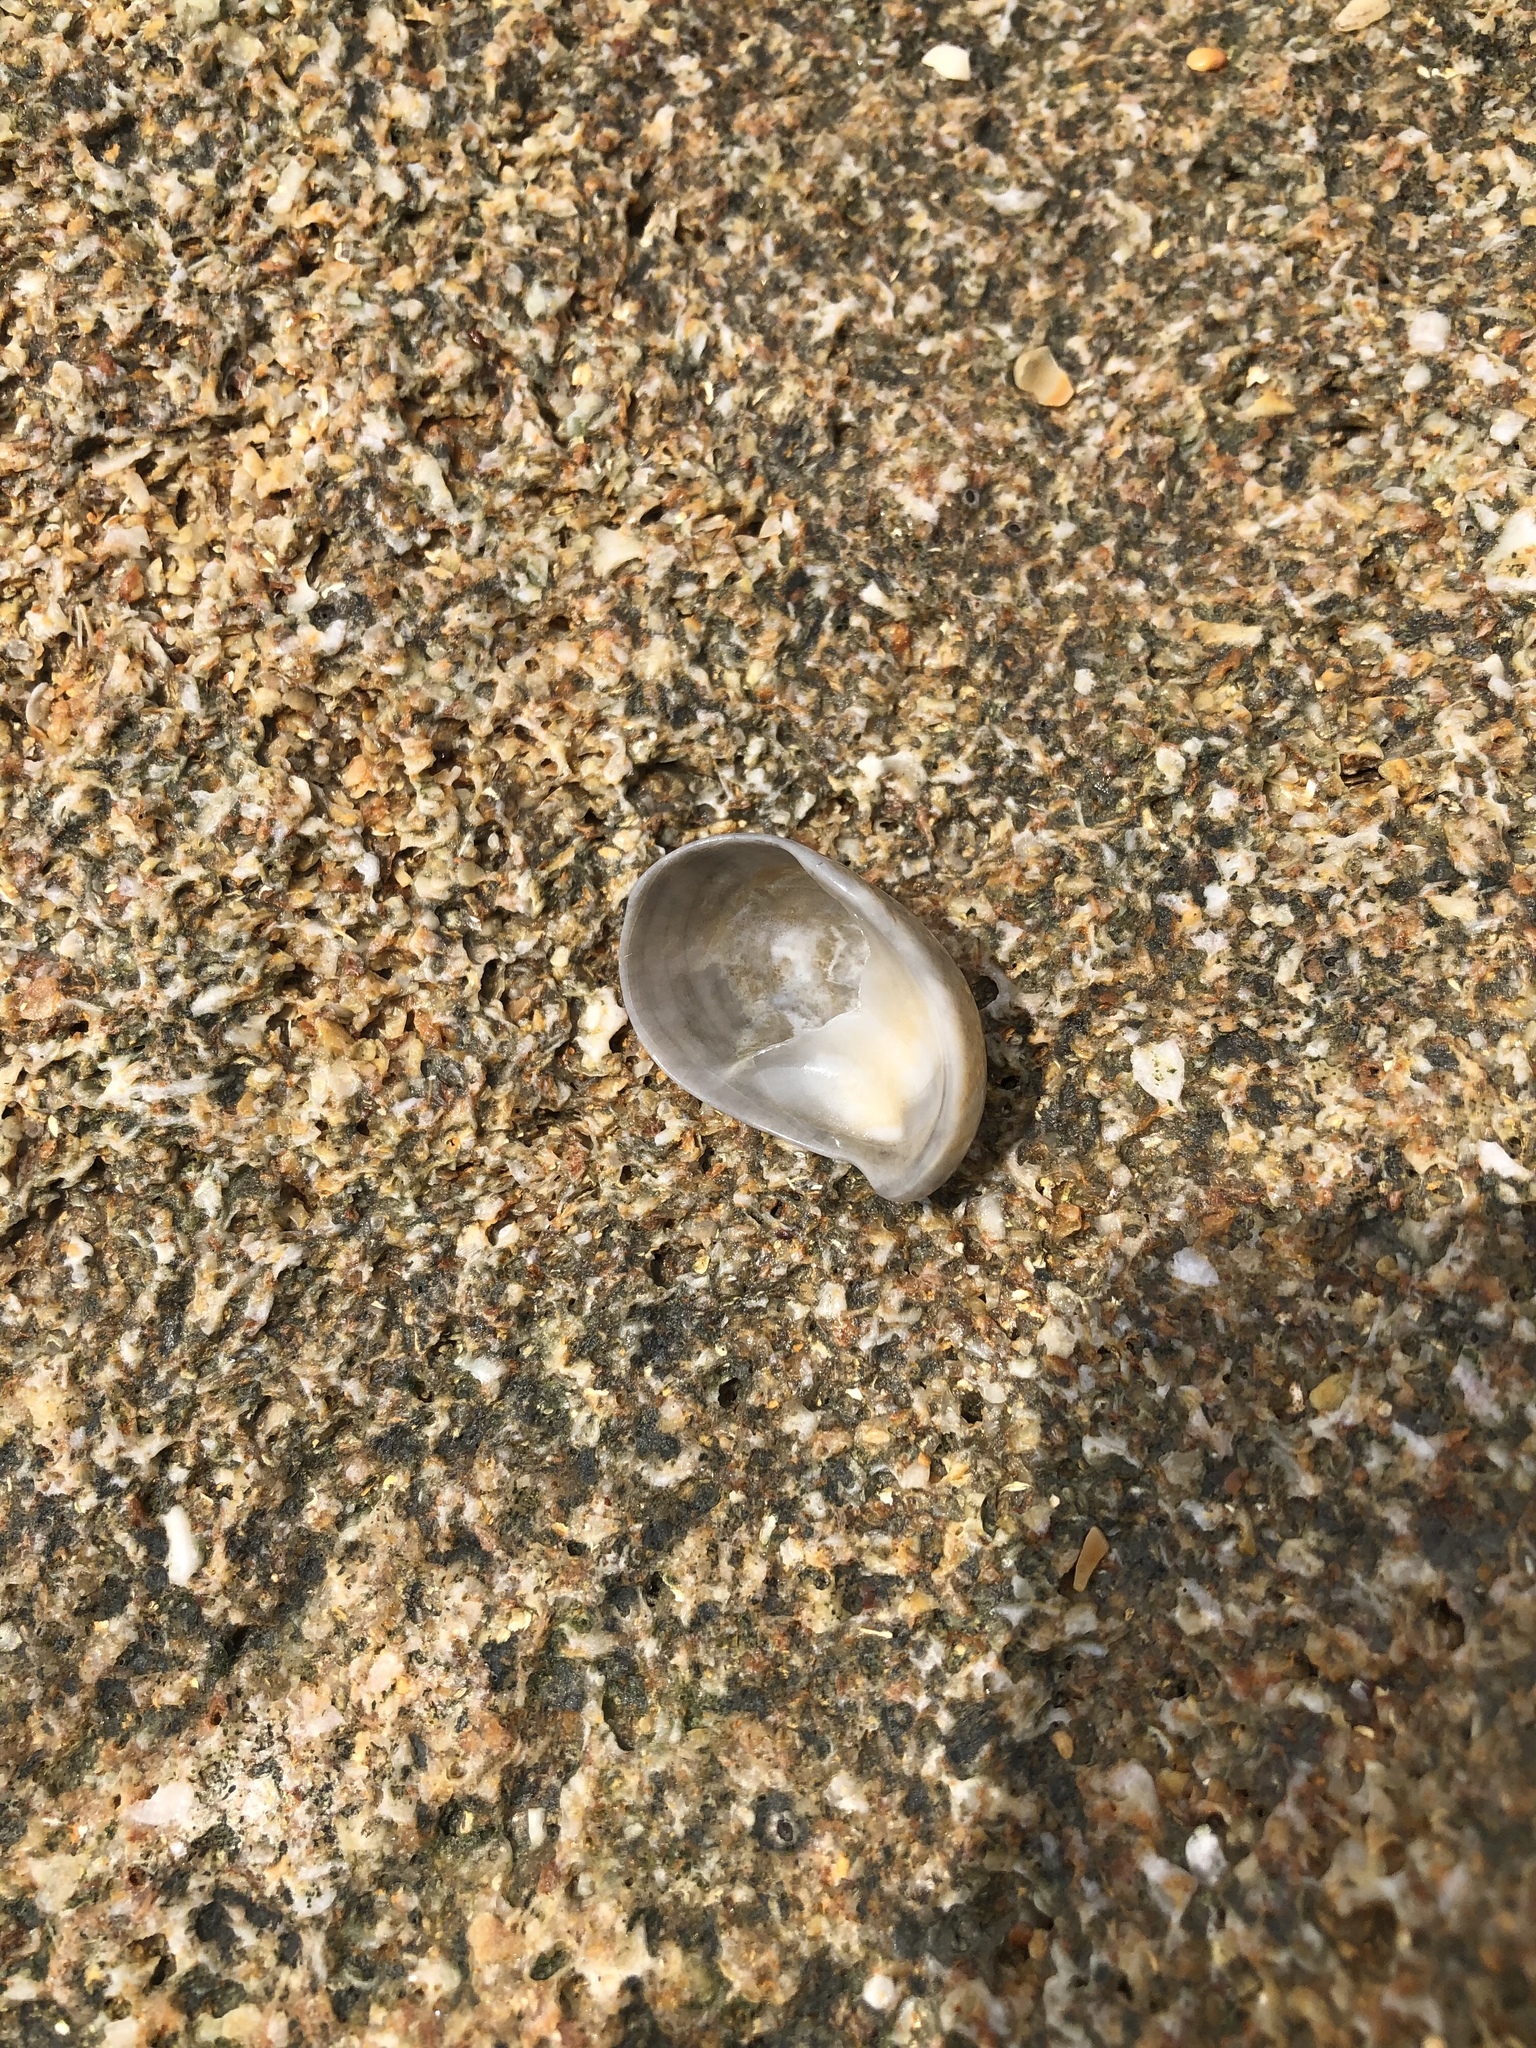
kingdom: Animalia
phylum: Mollusca
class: Gastropoda
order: Littorinimorpha
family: Calyptraeidae
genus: Crepidula
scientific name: Crepidula fornicata
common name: Slipper limpet
